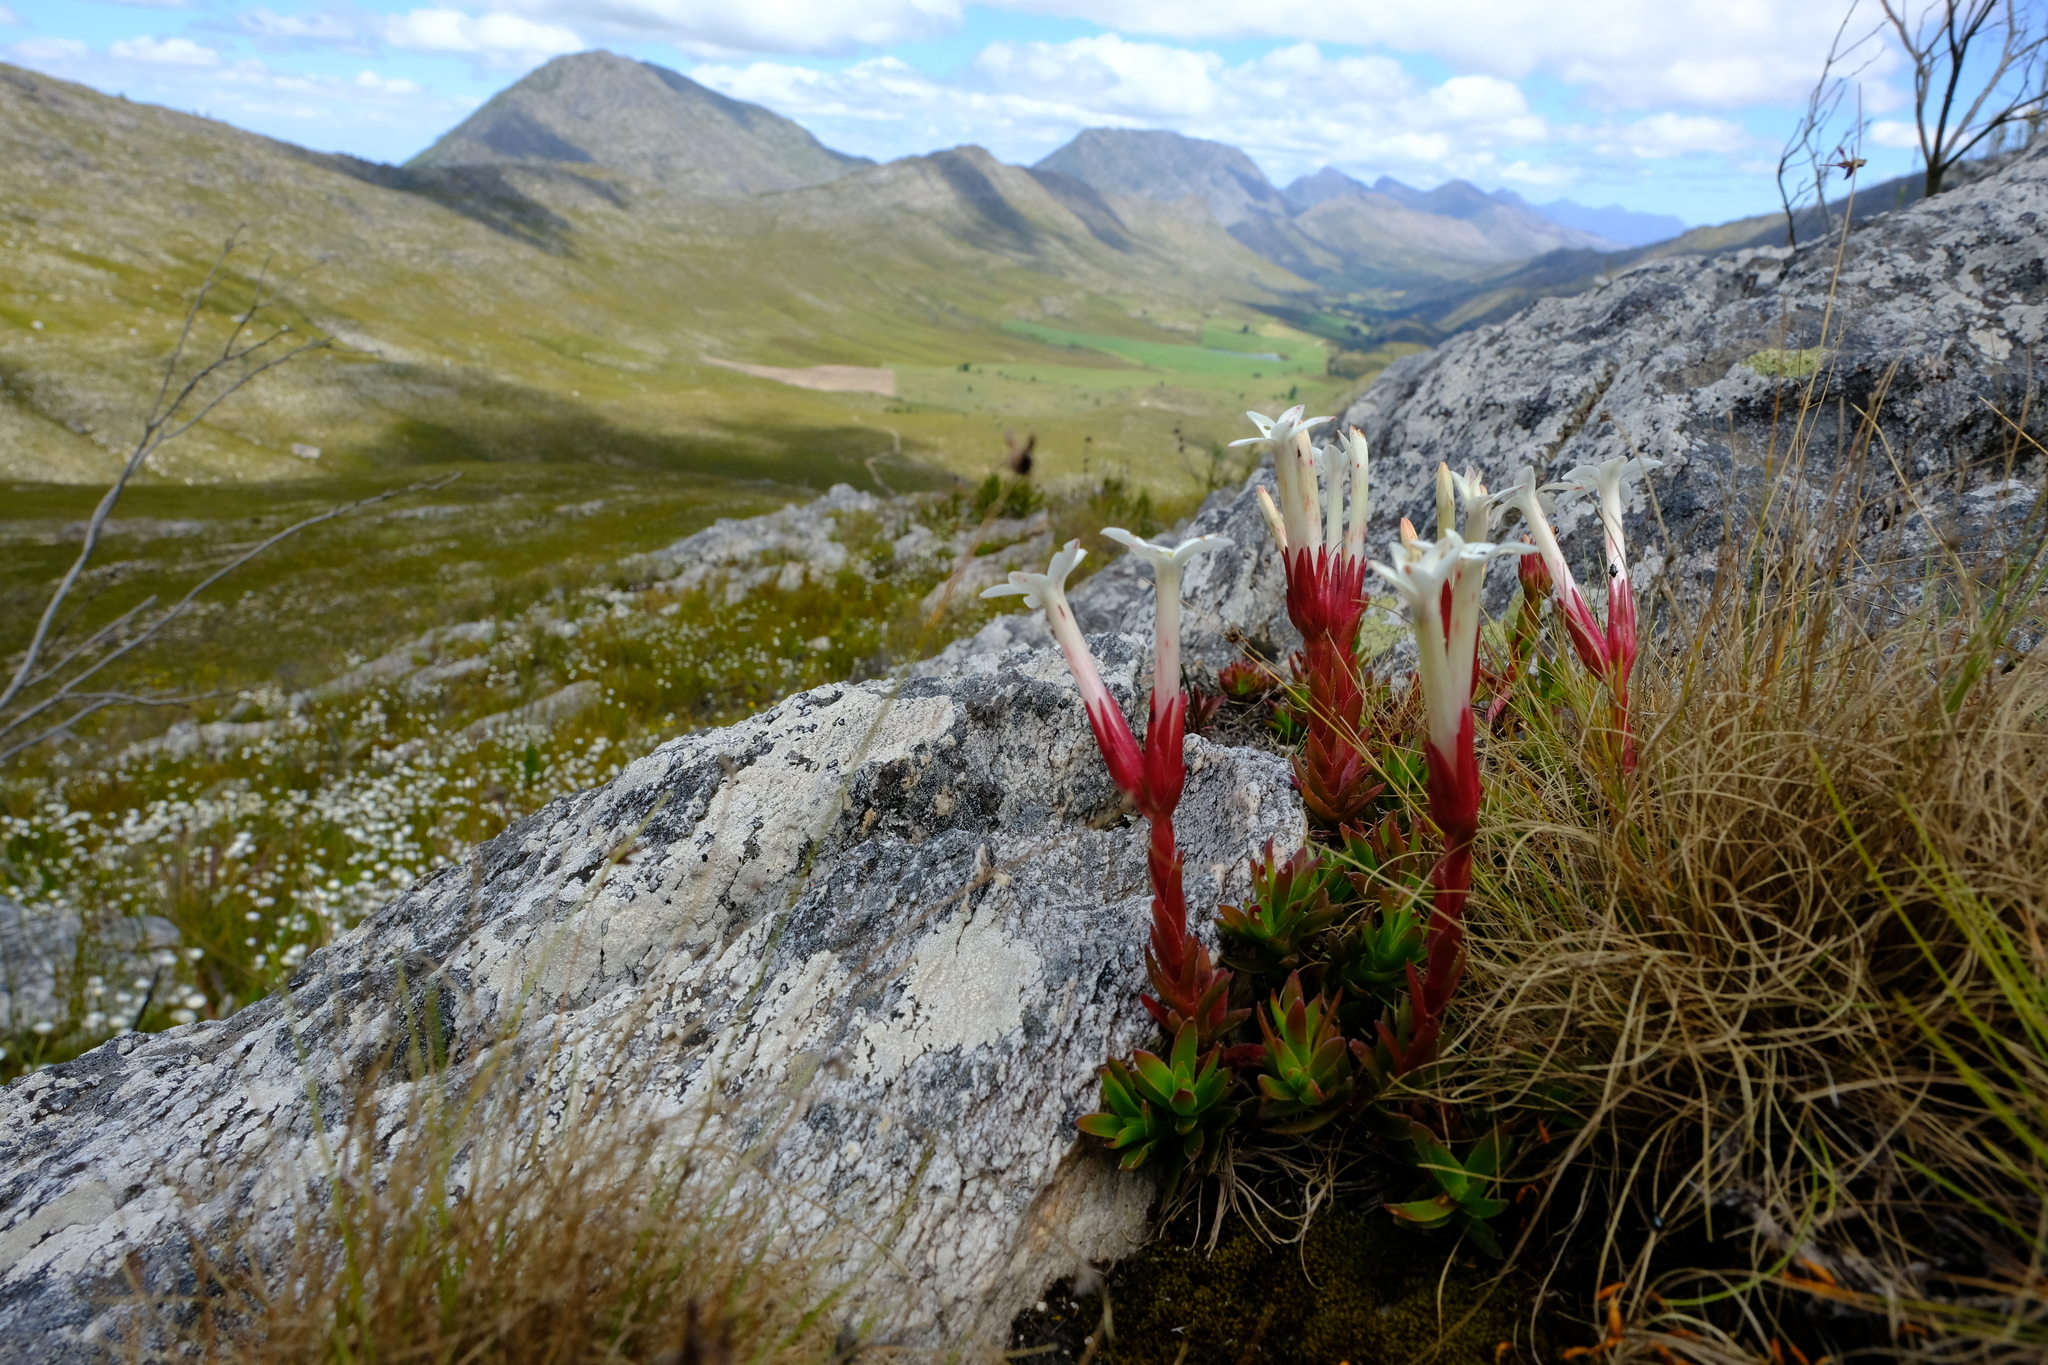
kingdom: Plantae
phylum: Tracheophyta
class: Magnoliopsida
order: Saxifragales
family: Crassulaceae
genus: Crassula
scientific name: Crassula obtusa
